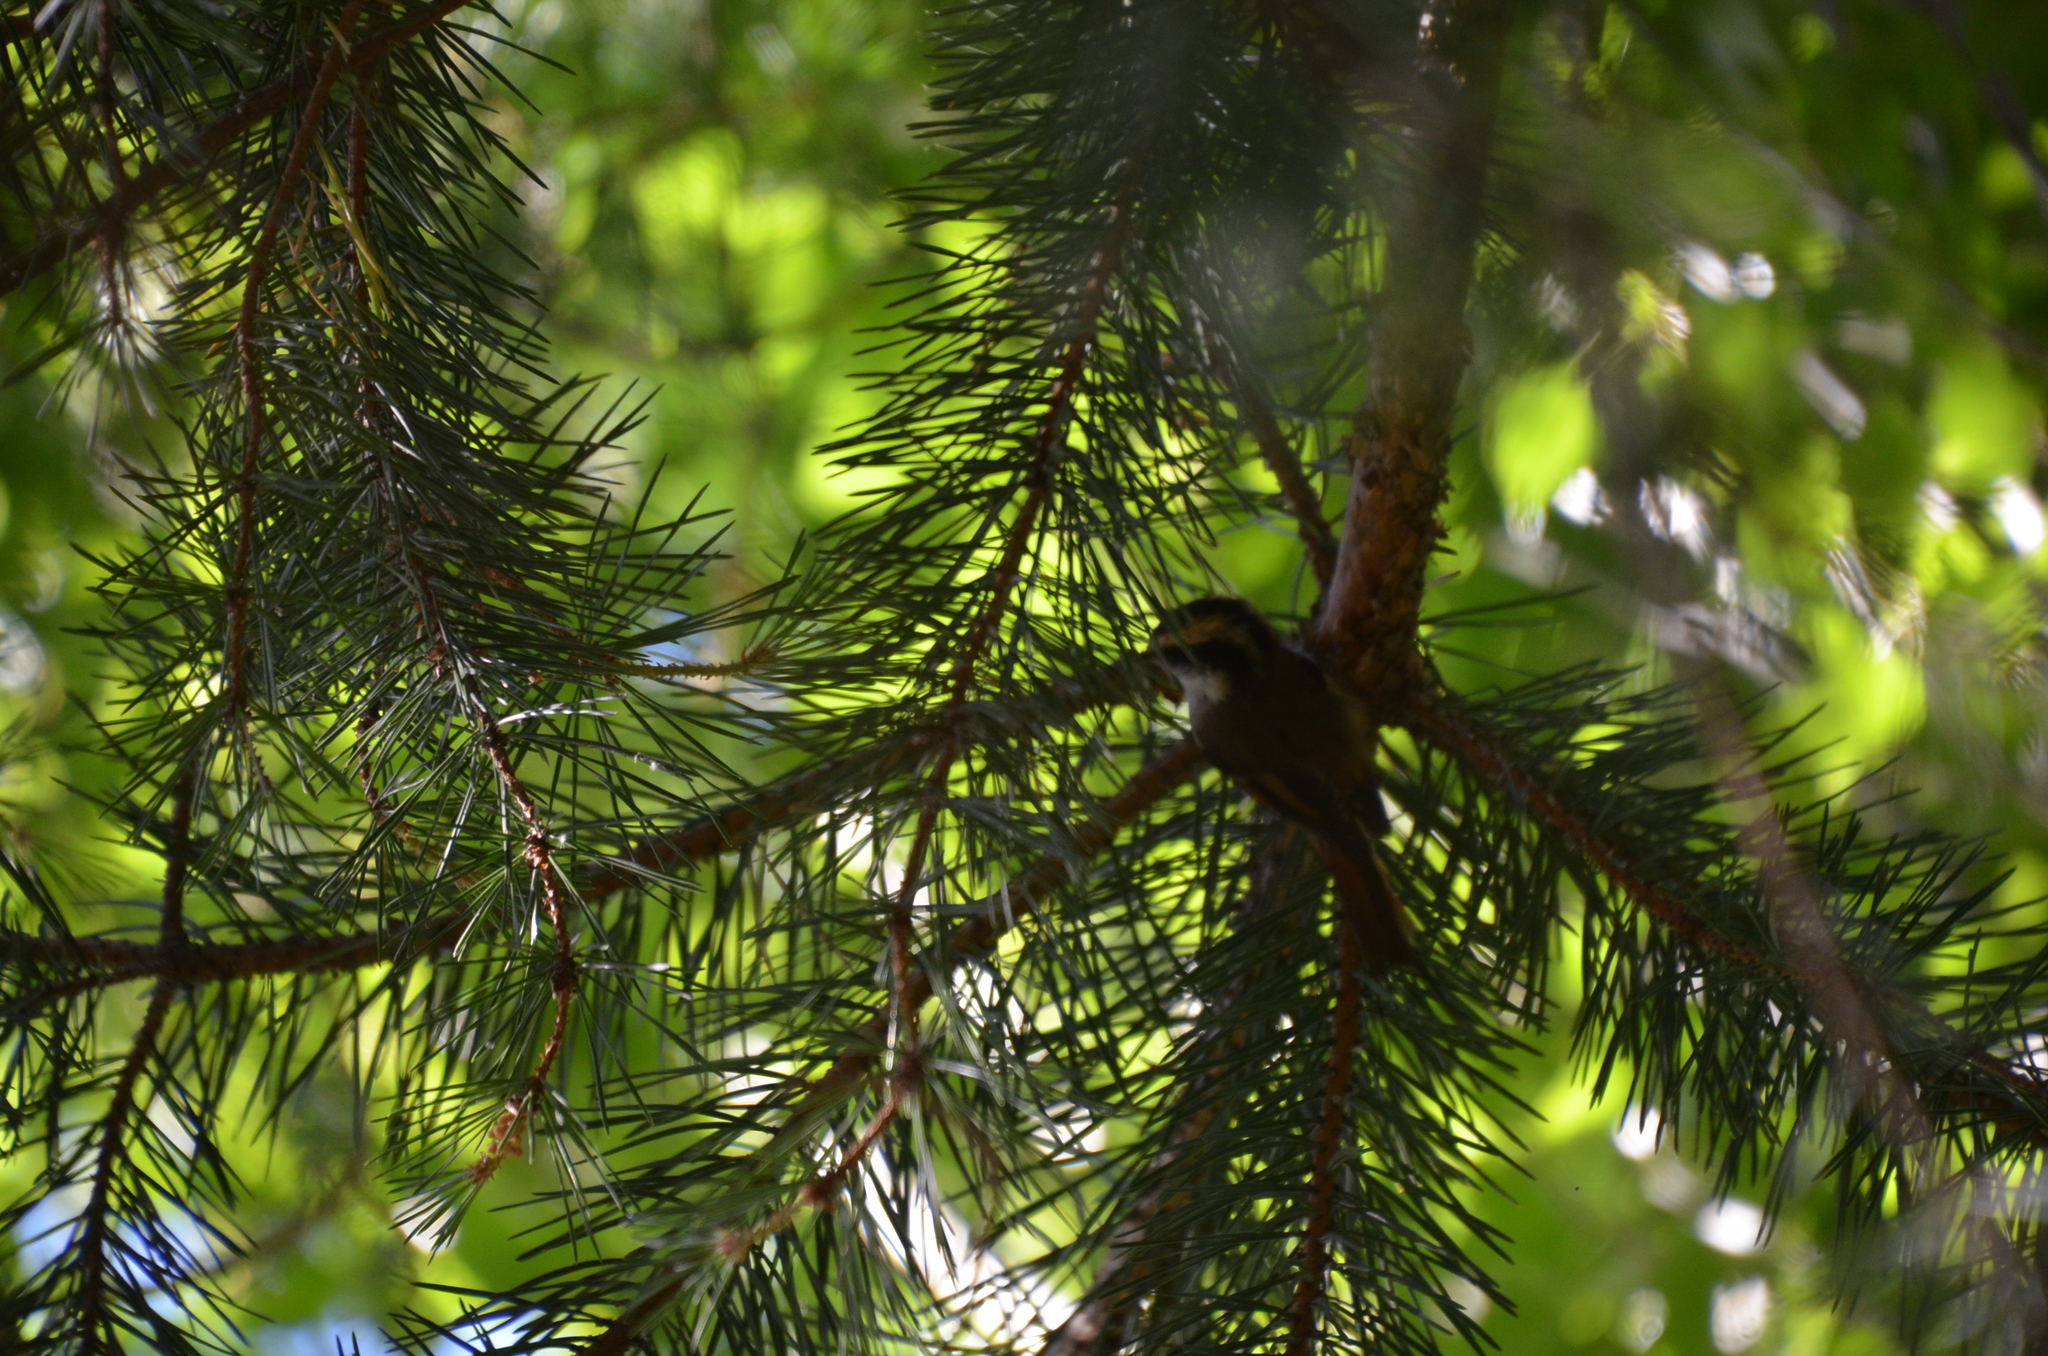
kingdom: Animalia
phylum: Chordata
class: Aves
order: Passeriformes
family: Furnariidae
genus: Aphrastura
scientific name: Aphrastura spinicauda
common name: Thorn-tailed rayadito
